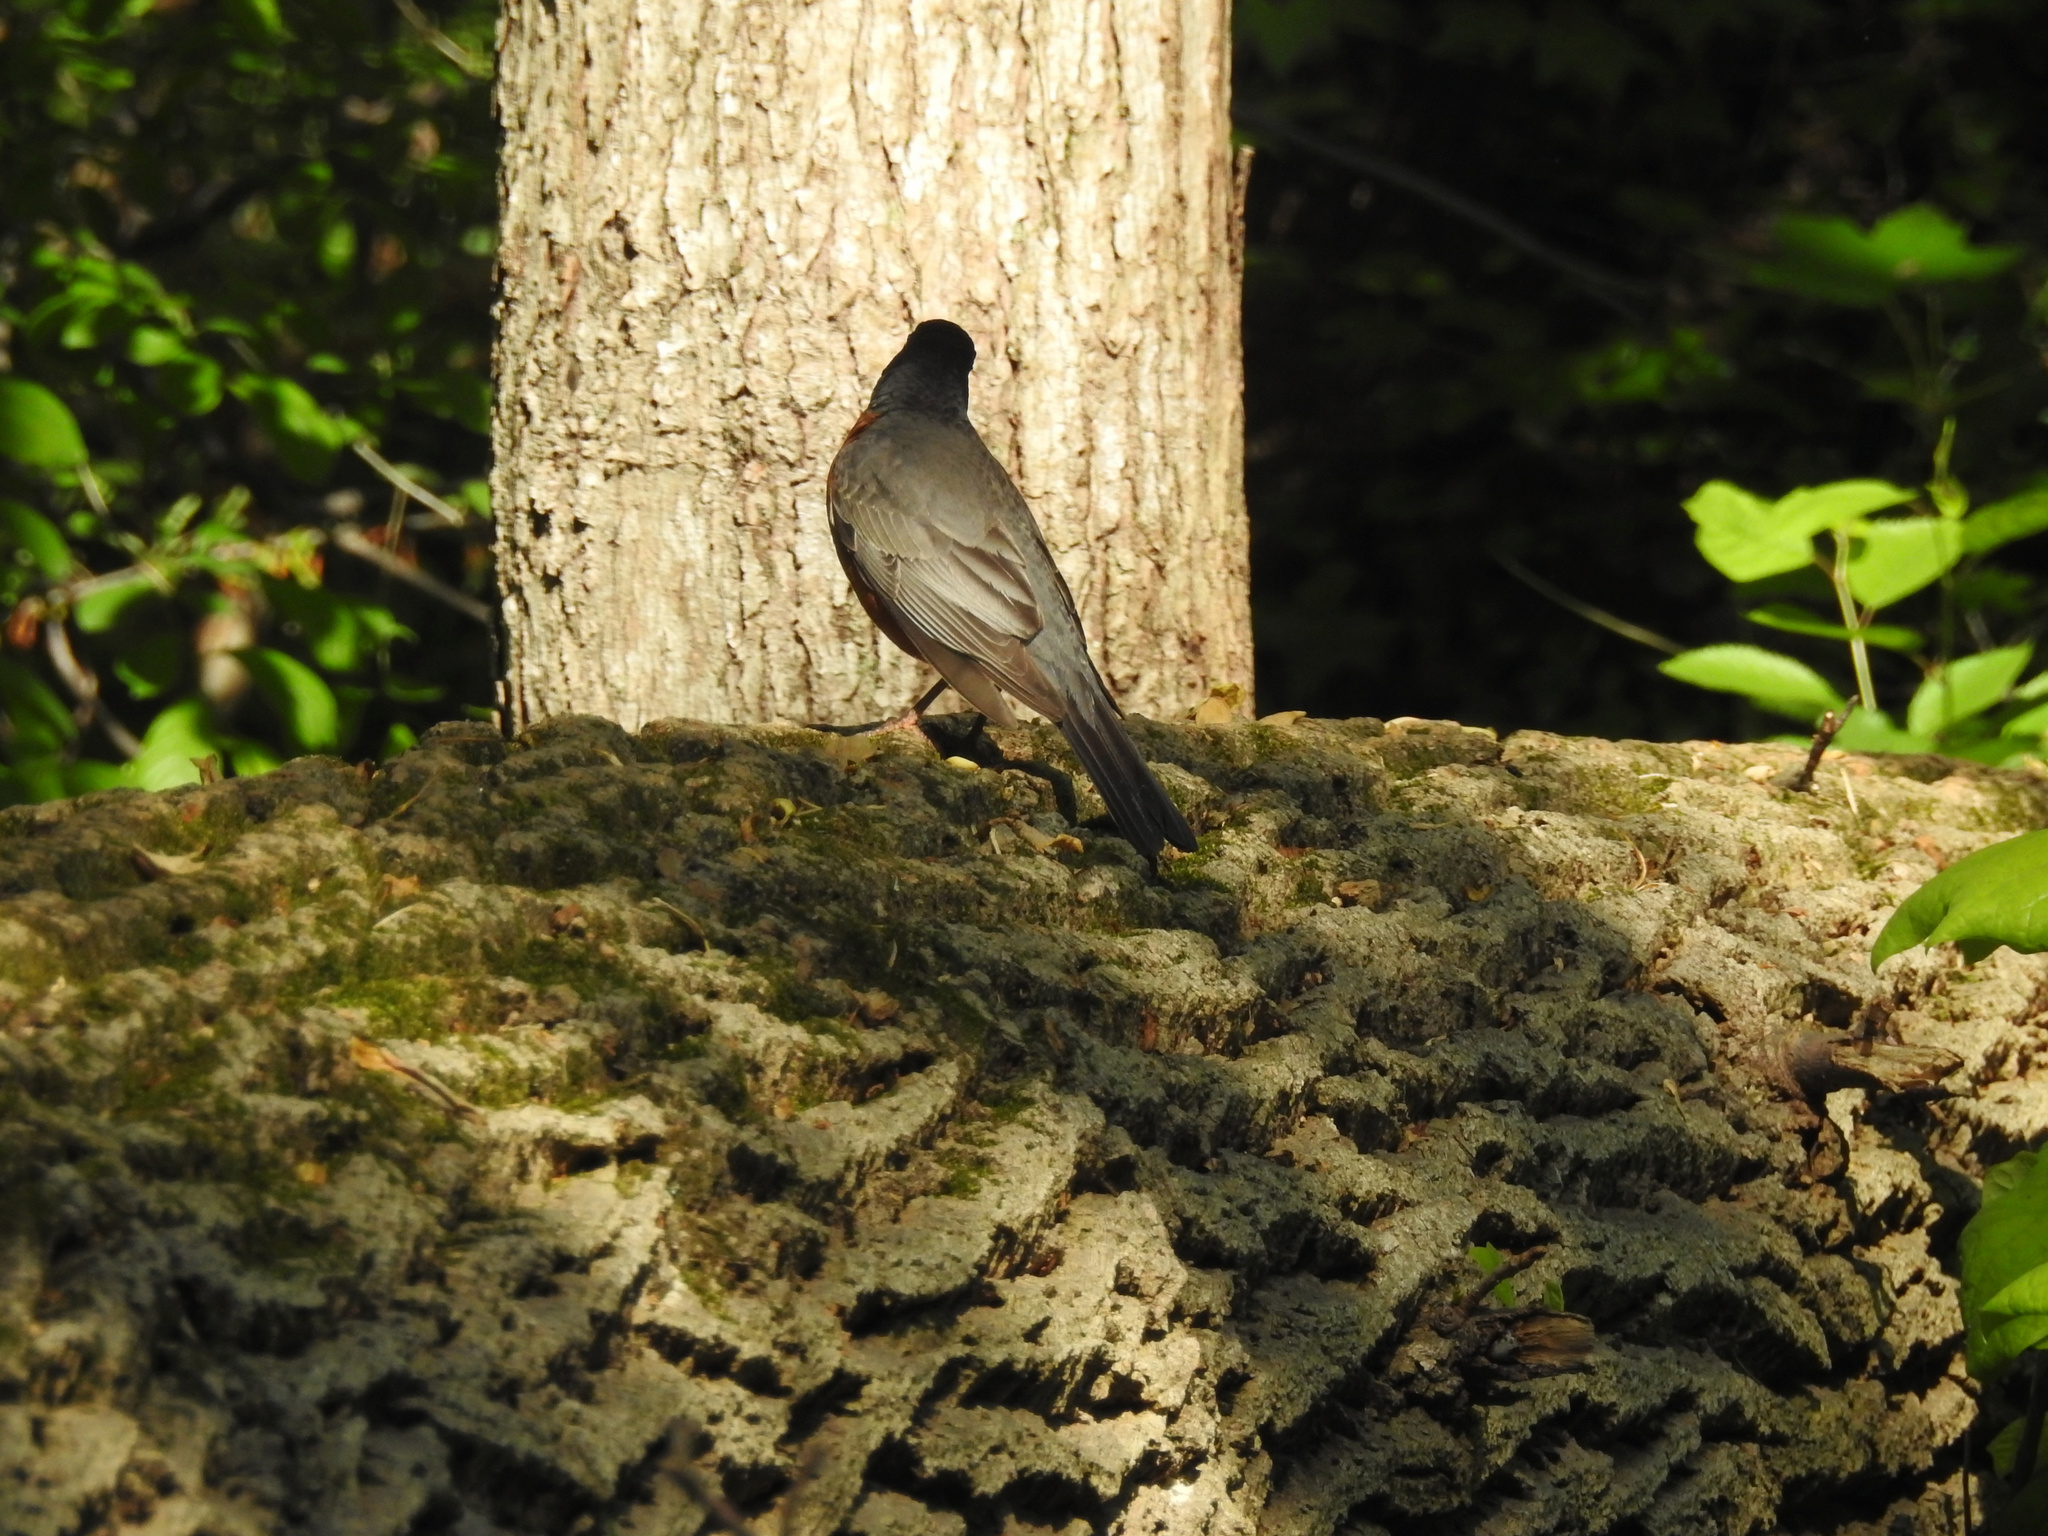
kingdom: Animalia
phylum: Chordata
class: Aves
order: Passeriformes
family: Turdidae
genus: Turdus
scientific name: Turdus migratorius
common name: American robin
